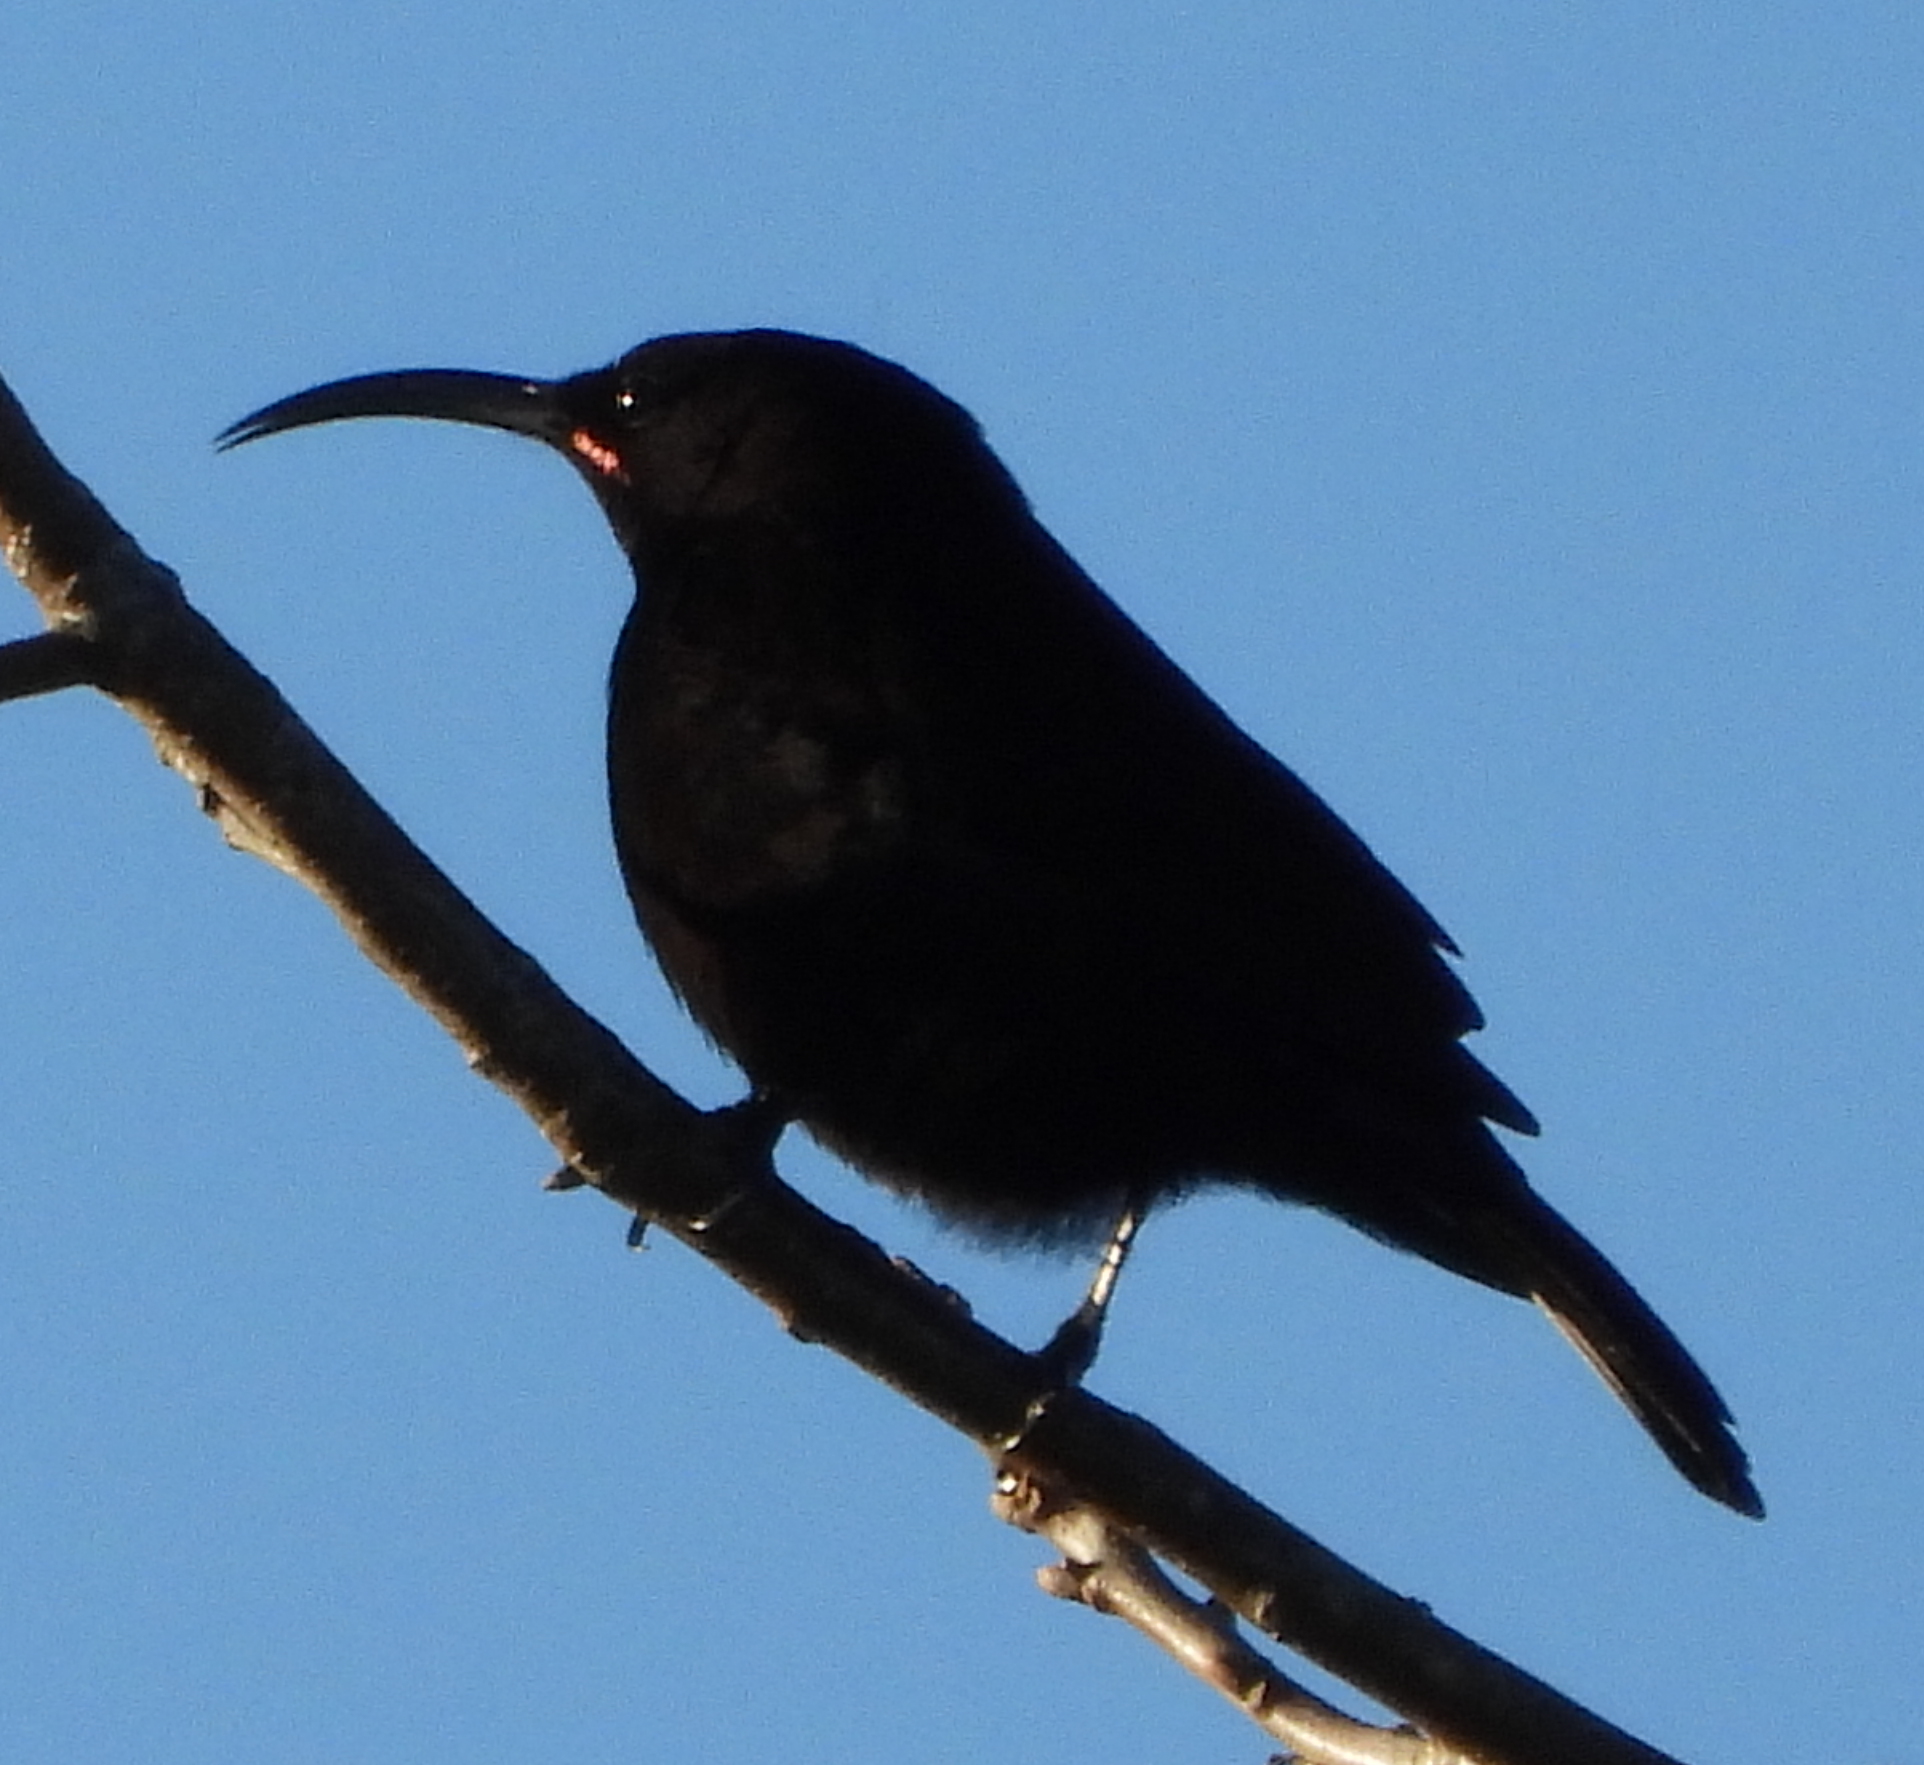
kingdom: Animalia
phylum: Chordata
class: Aves
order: Passeriformes
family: Nectariniidae
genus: Chalcomitra
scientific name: Chalcomitra amethystina
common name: Amethyst sunbird
